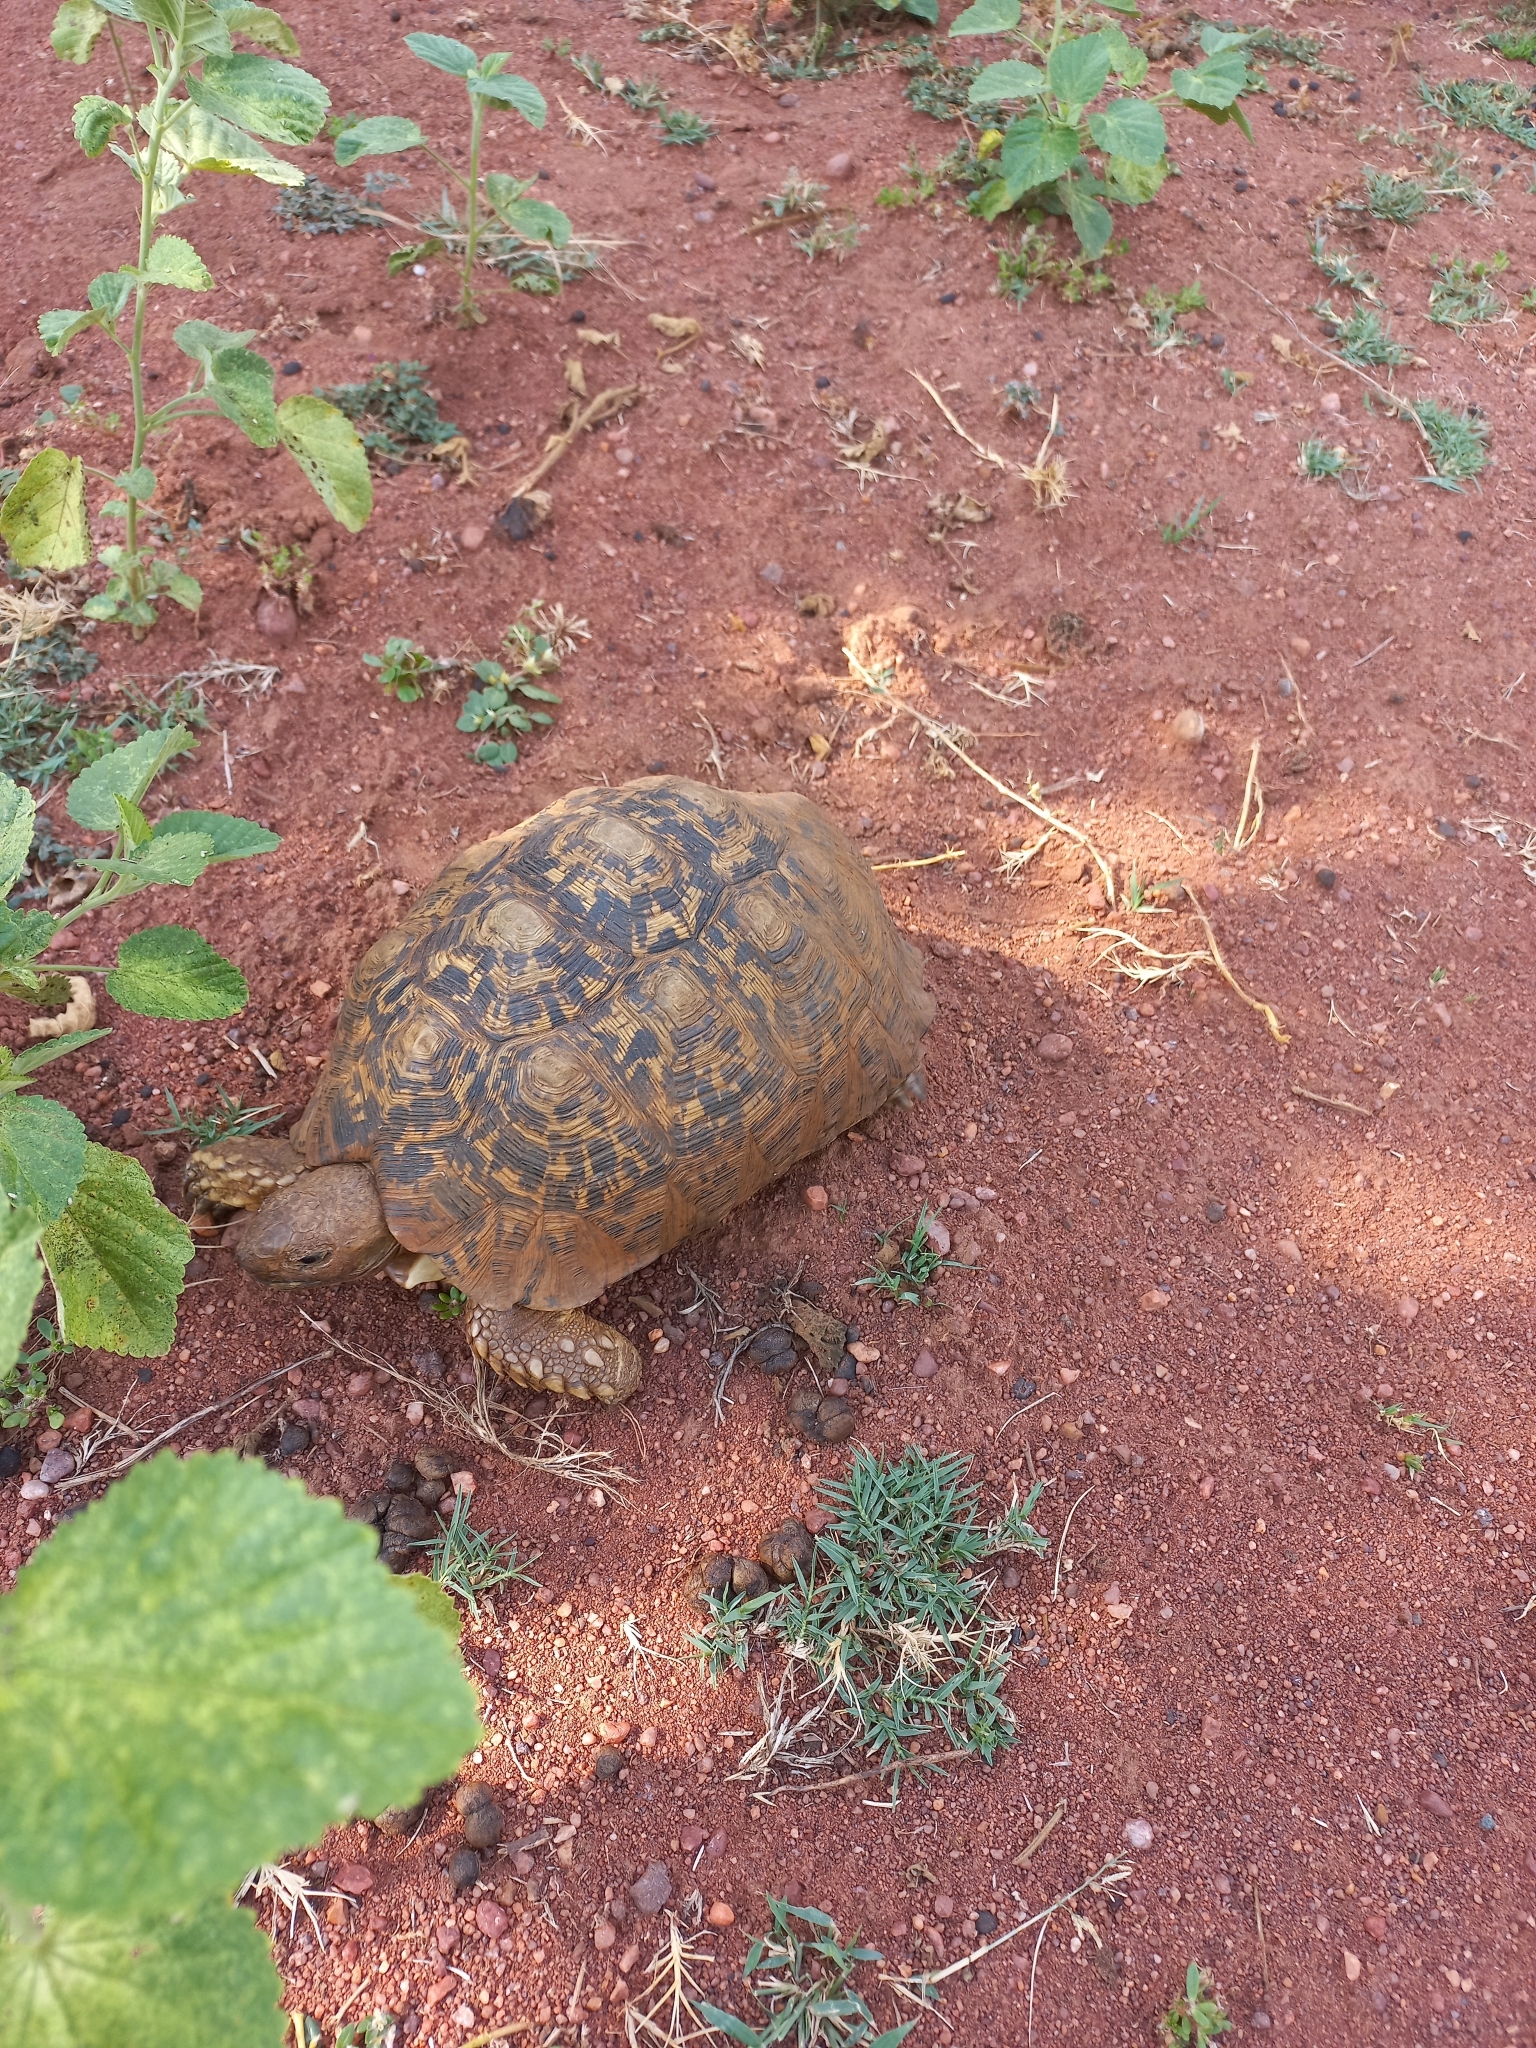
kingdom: Animalia
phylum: Chordata
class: Testudines
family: Testudinidae
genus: Stigmochelys
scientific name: Stigmochelys pardalis
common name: Leopard tortoise
